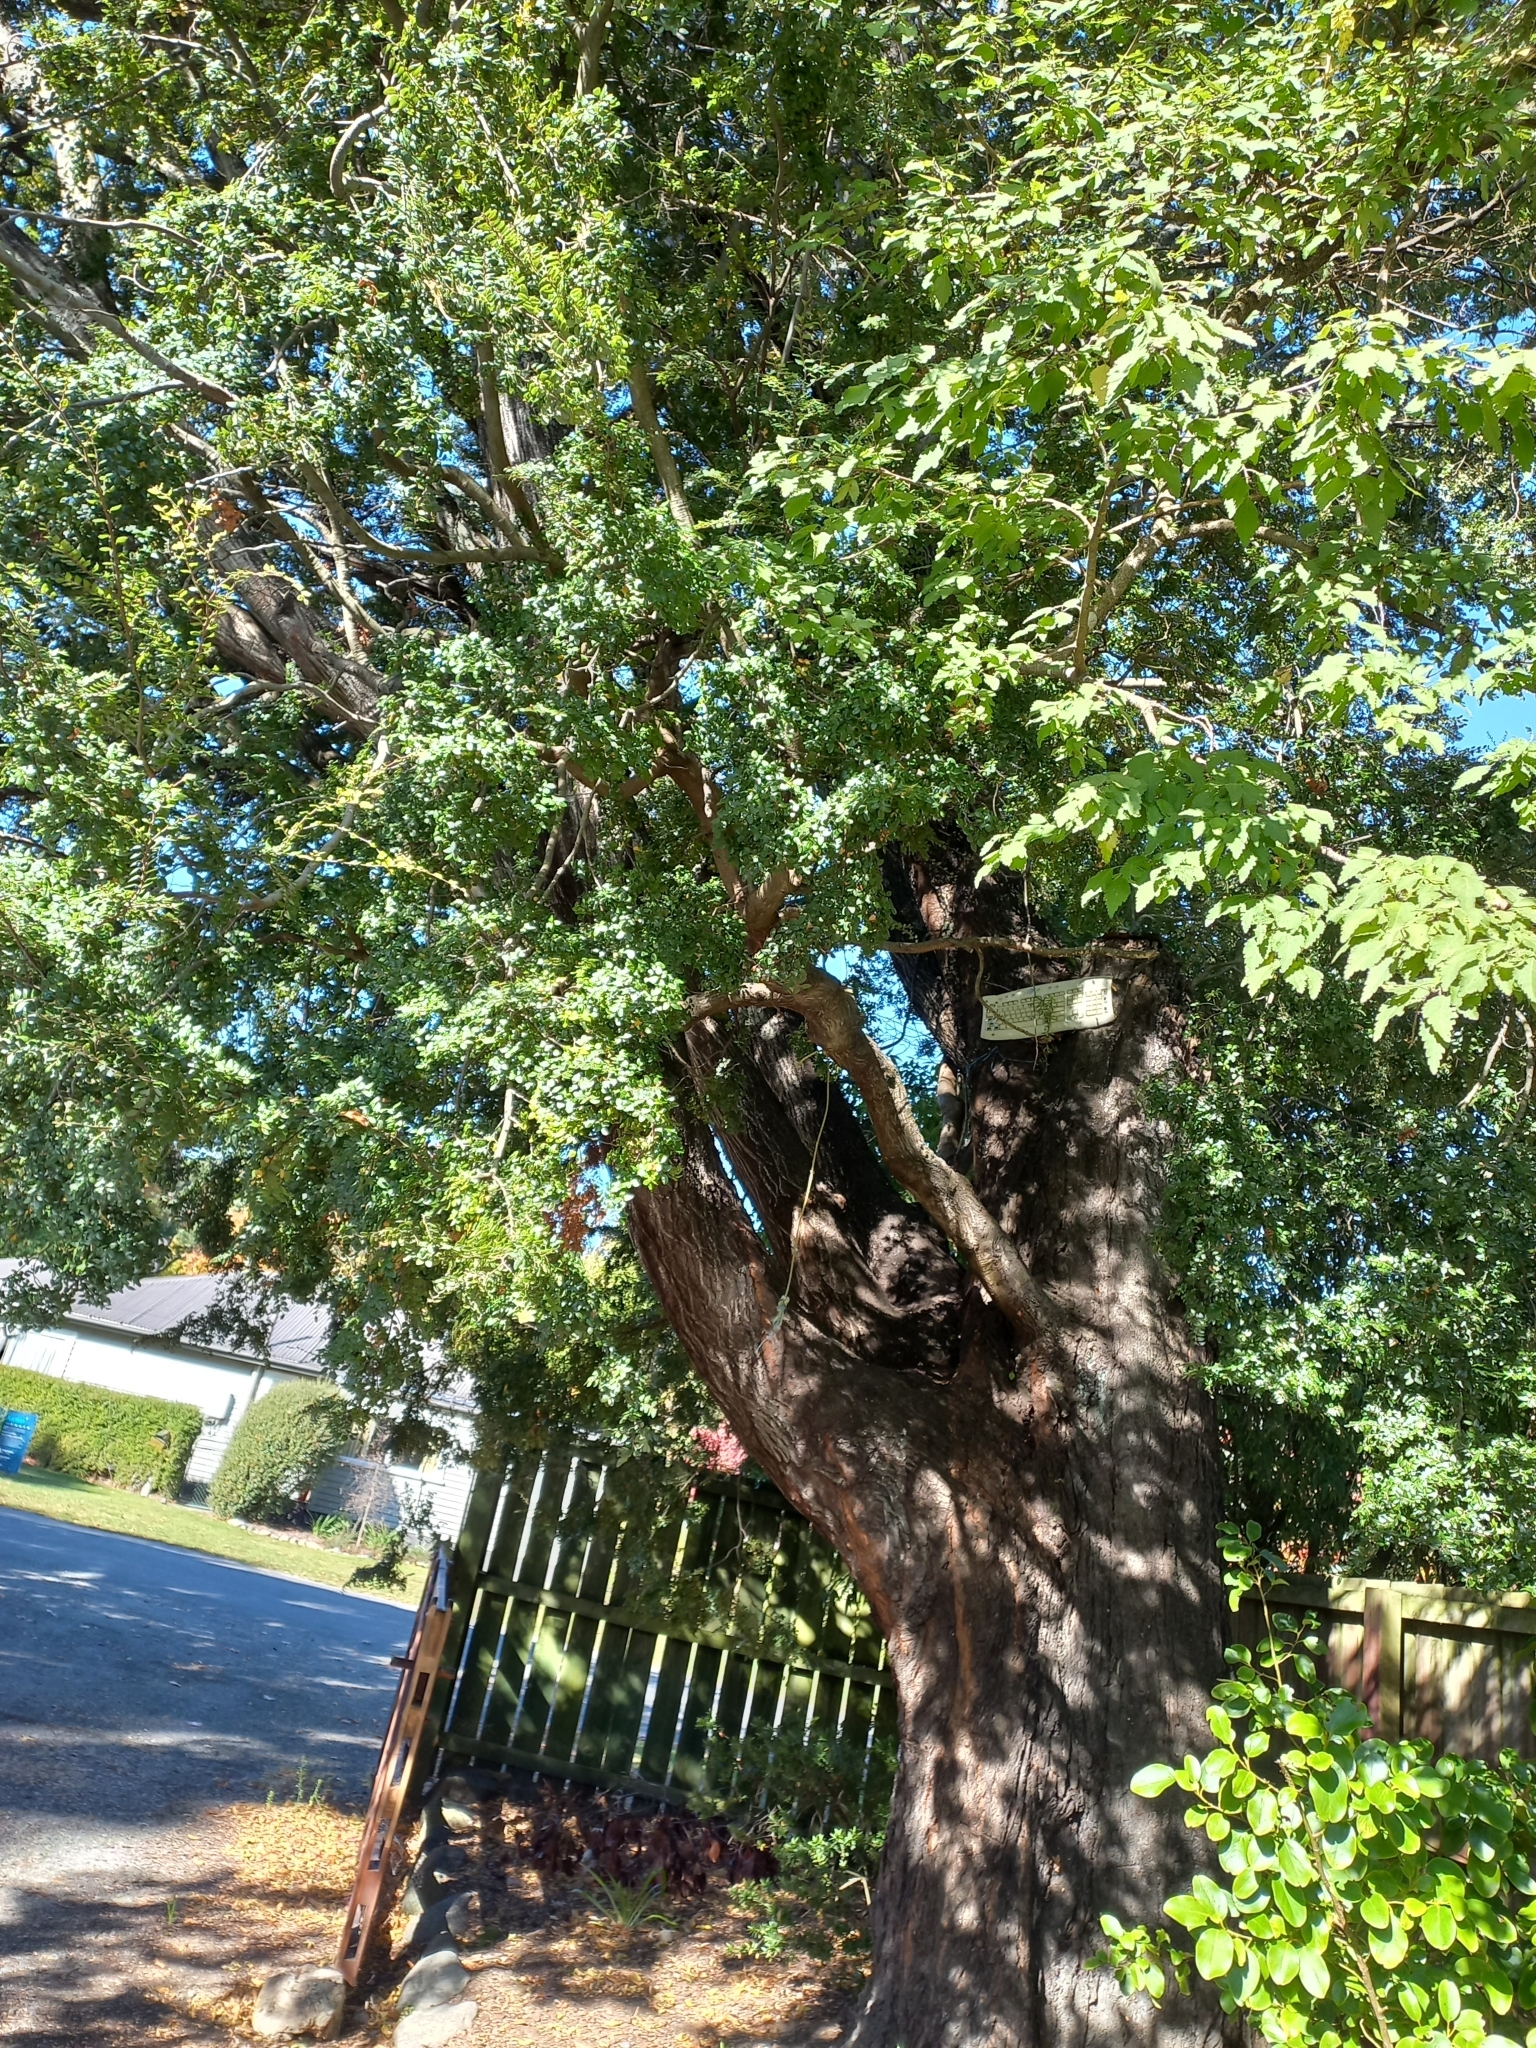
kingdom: Plantae
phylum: Tracheophyta
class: Magnoliopsida
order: Fagales
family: Nothofagaceae
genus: Nothofagus
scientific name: Nothofagus cliffortioides
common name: Mountain beech
